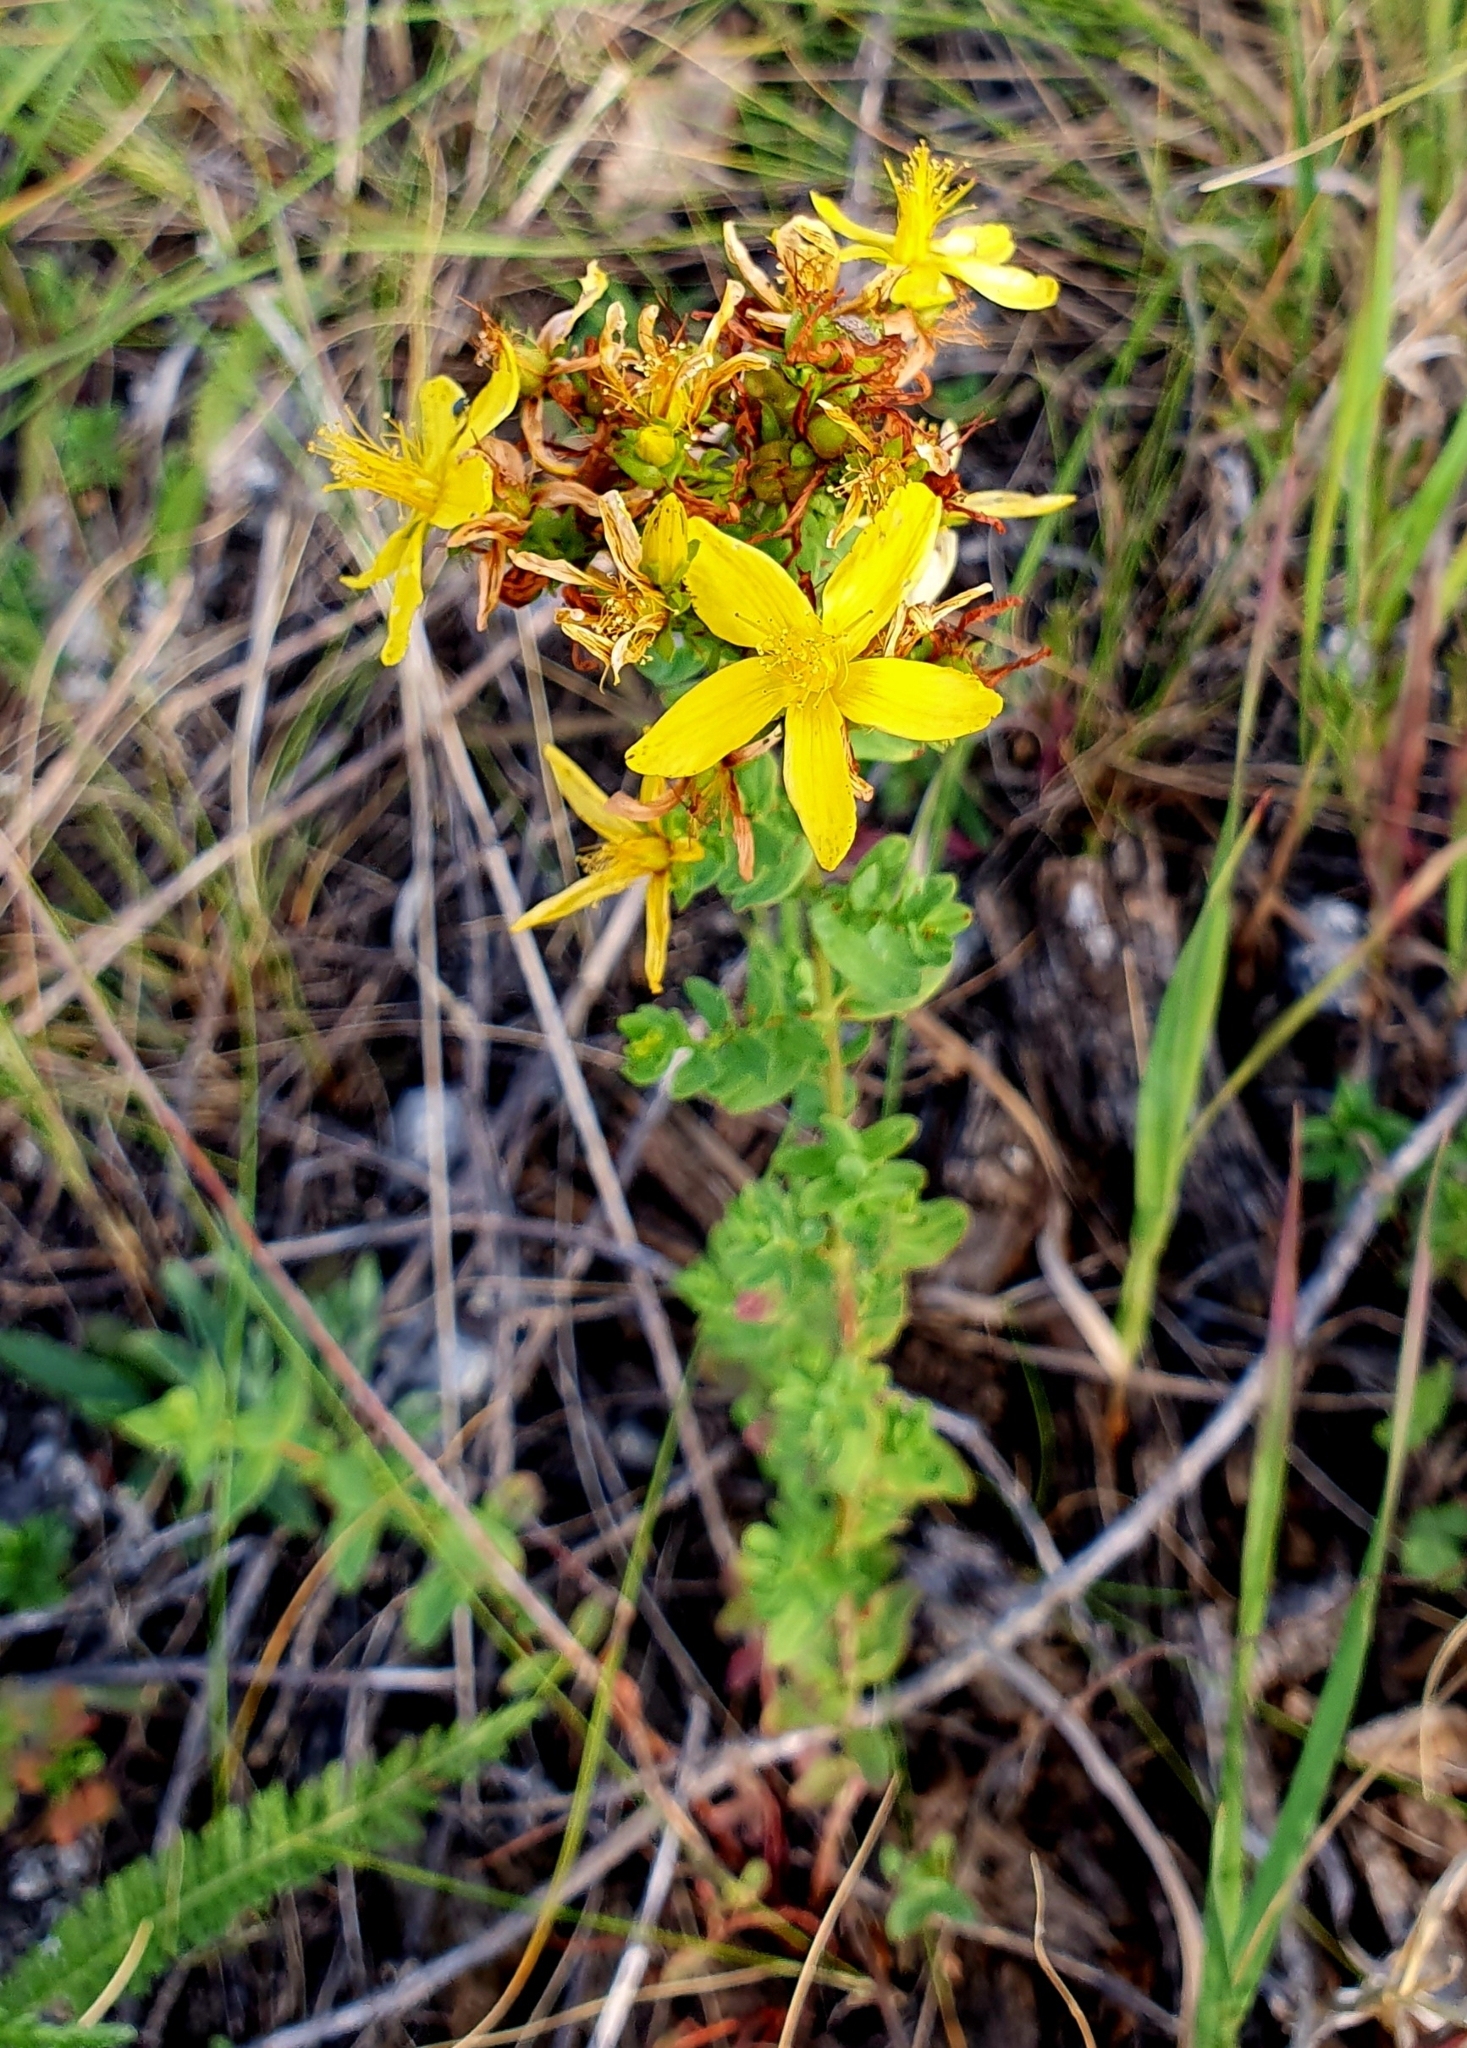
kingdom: Plantae
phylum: Tracheophyta
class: Magnoliopsida
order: Malpighiales
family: Hypericaceae
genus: Hypericum
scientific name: Hypericum perforatum
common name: Common st. johnswort
